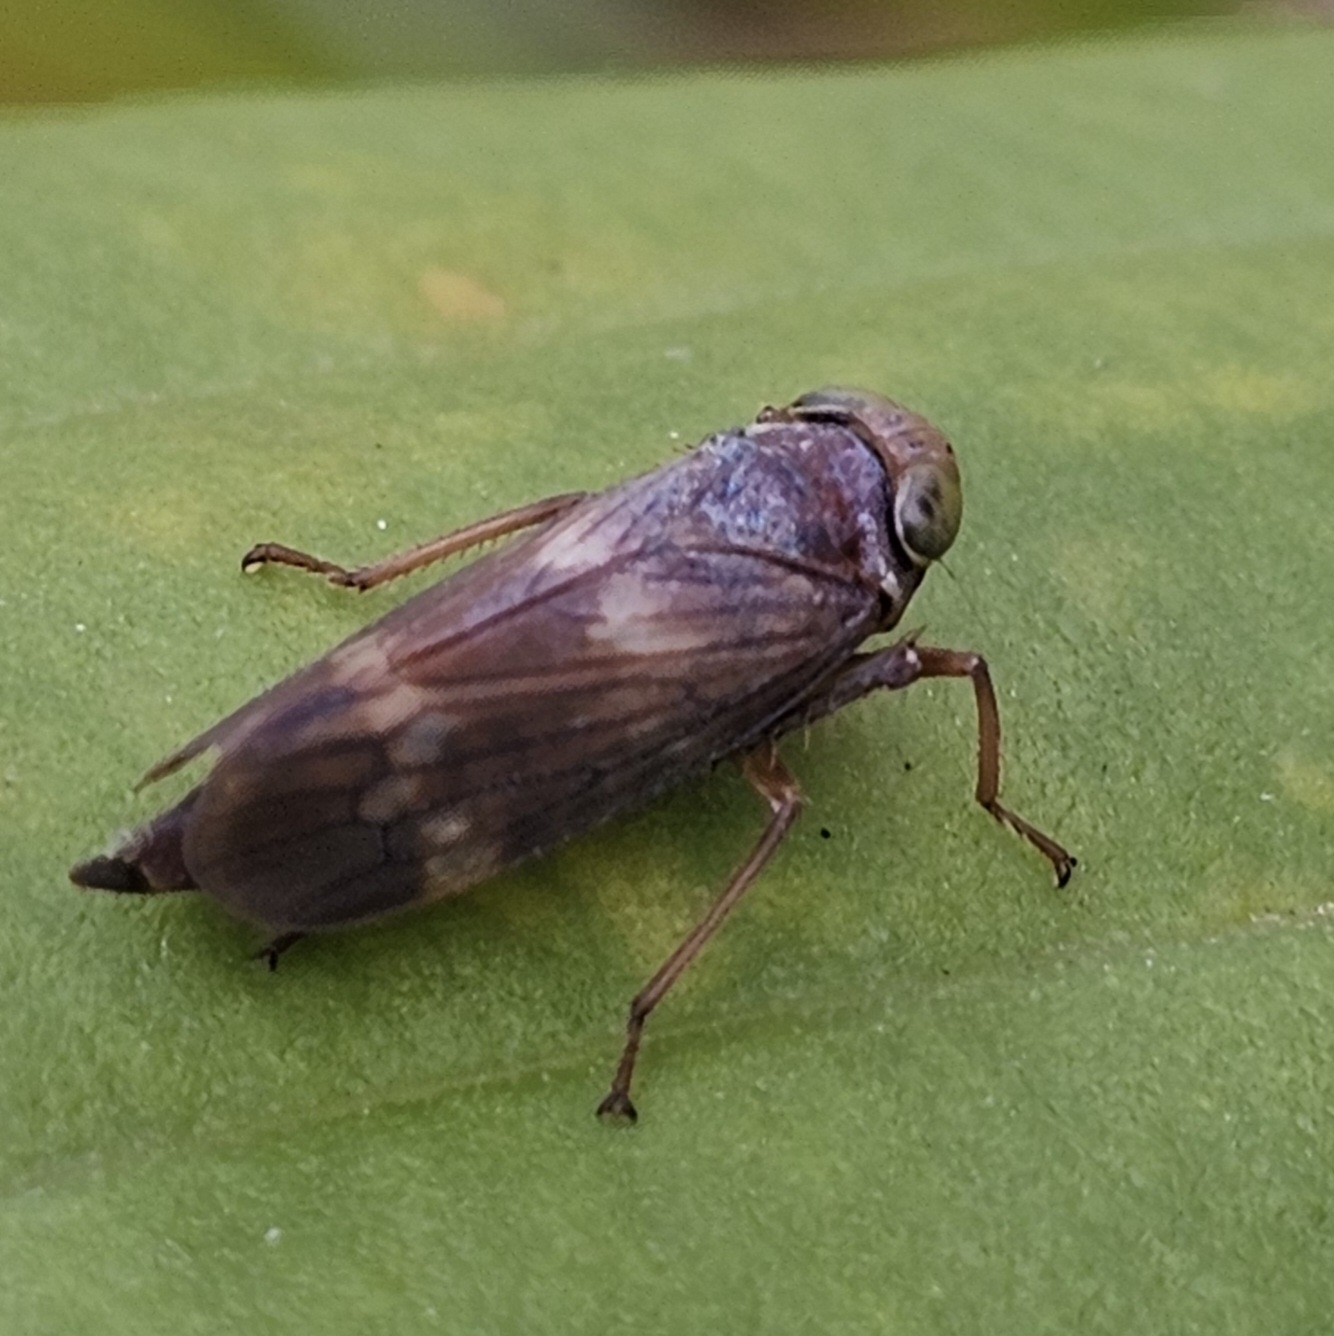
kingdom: Animalia
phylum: Arthropoda
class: Insecta
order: Hemiptera
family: Cicadellidae
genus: Jikradia
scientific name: Jikradia olitoria
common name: Coppery leafhopper
